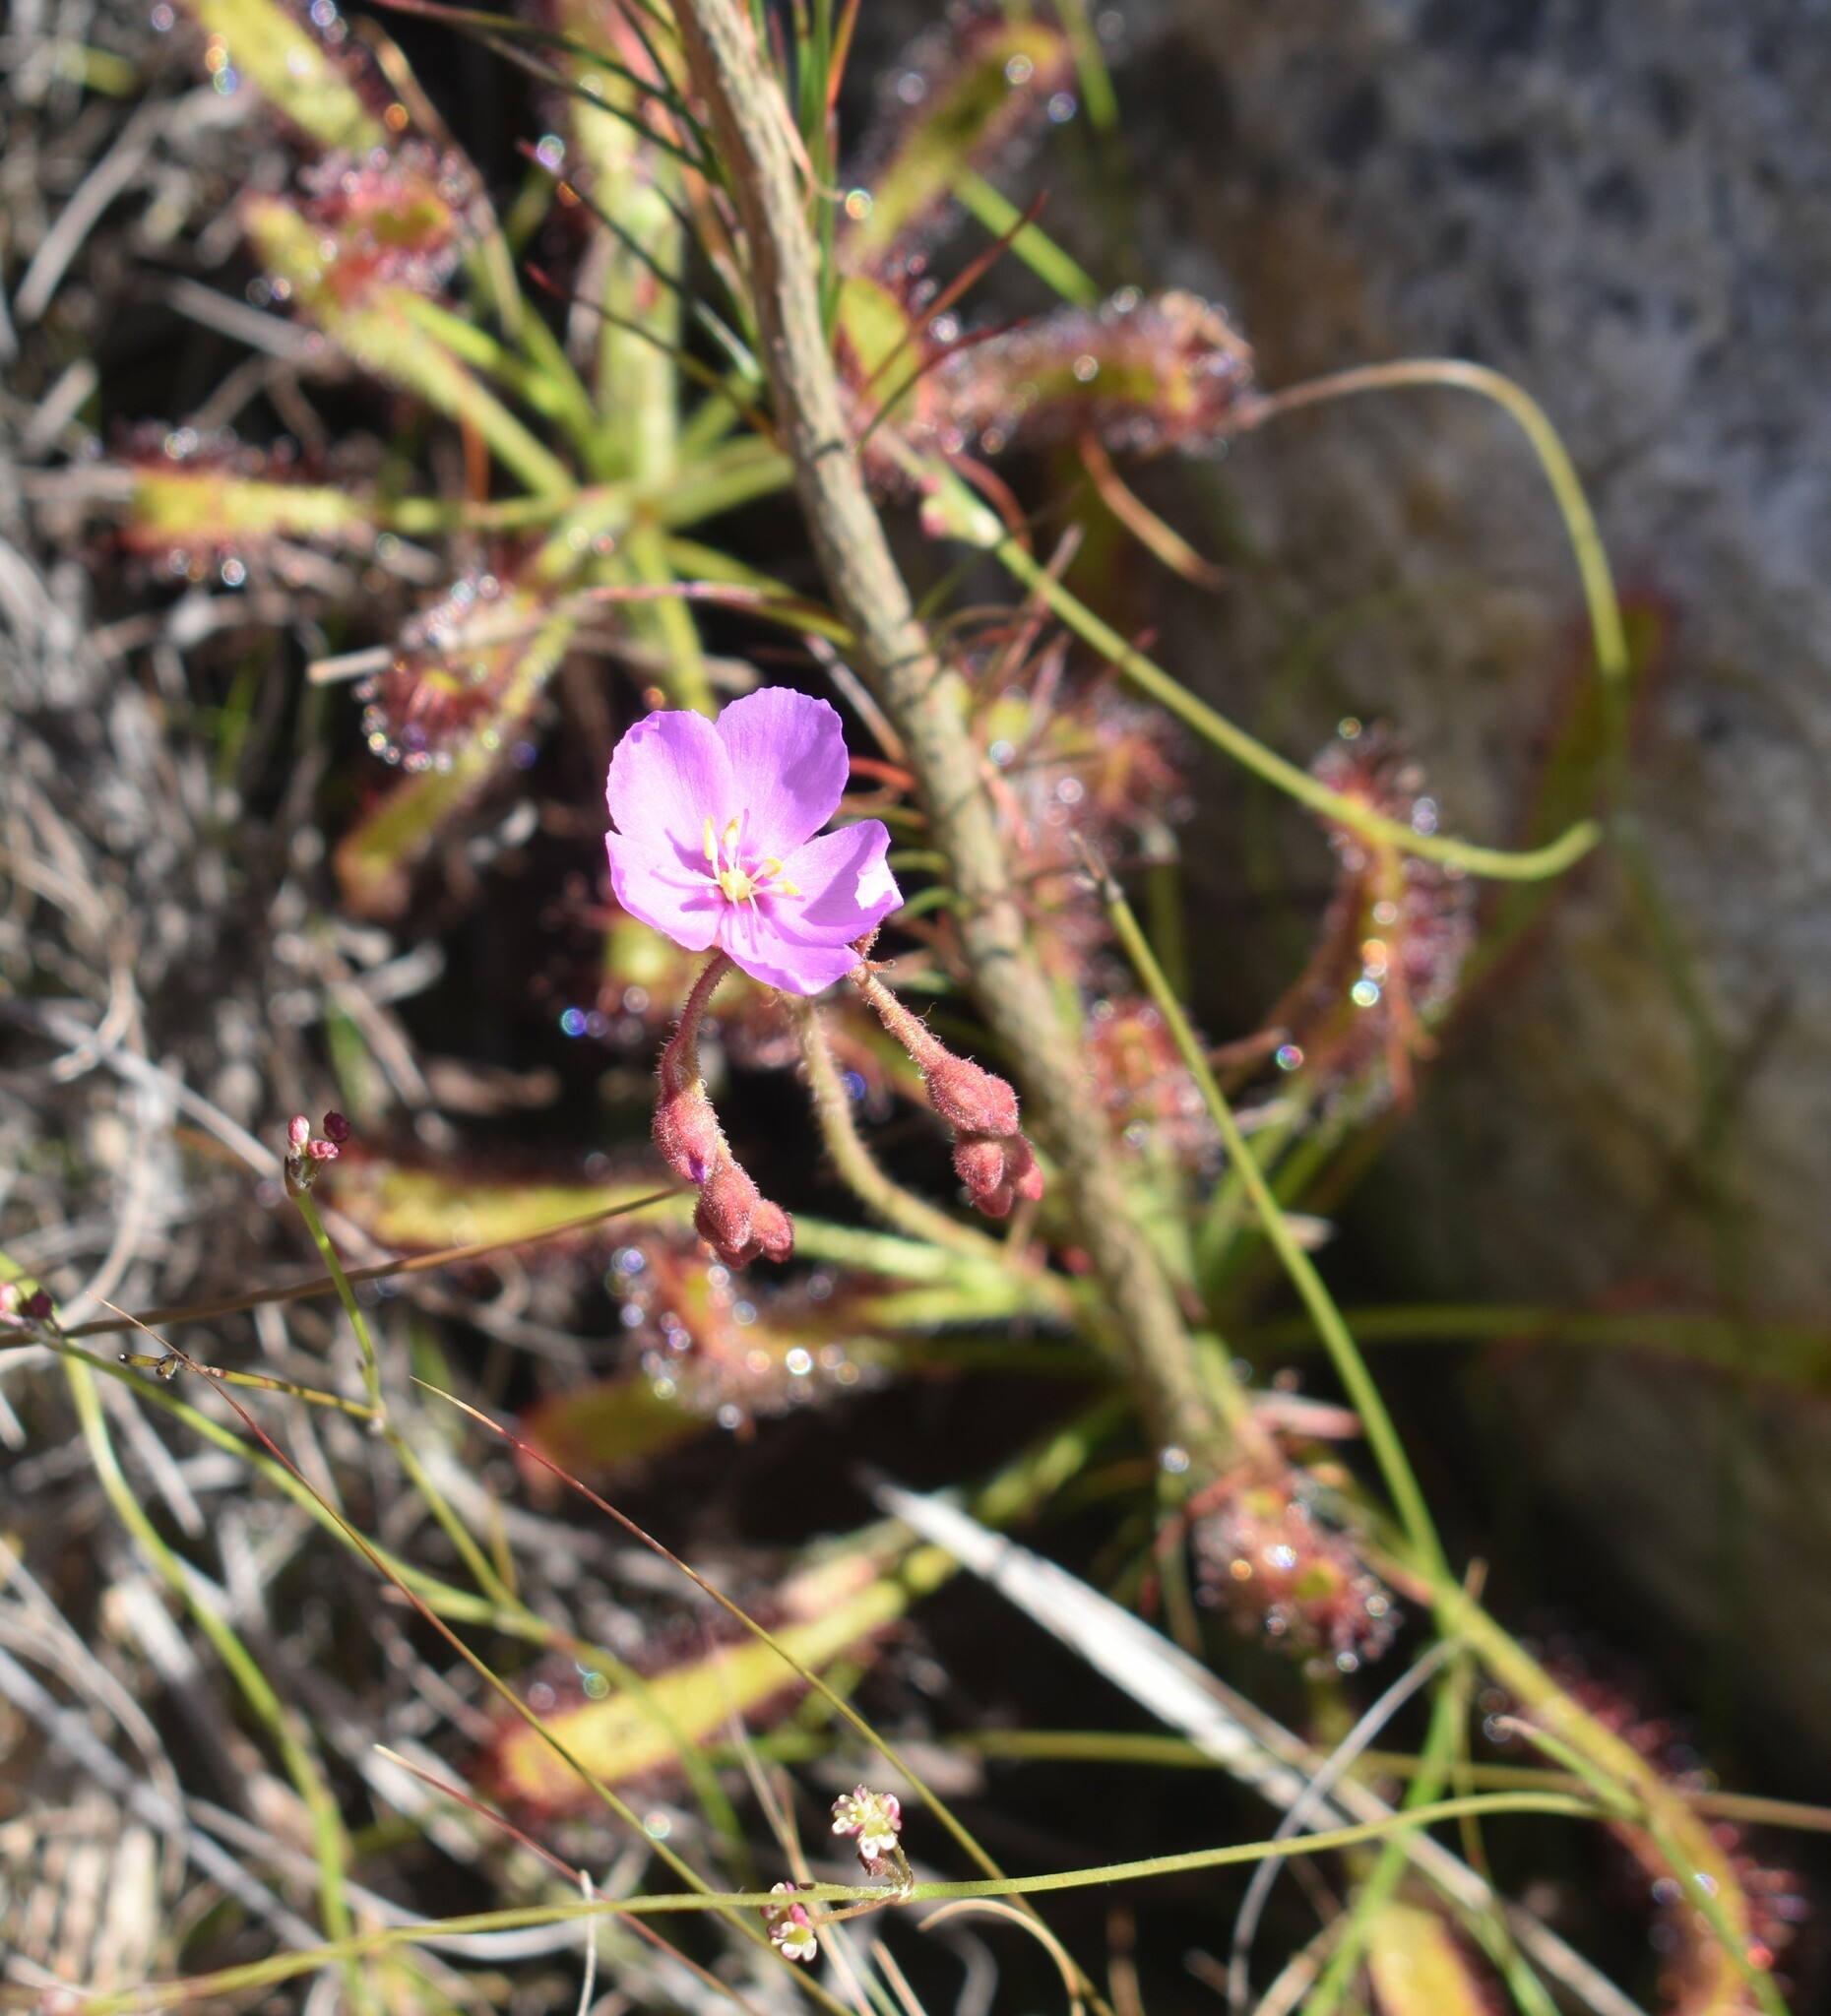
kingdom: Plantae
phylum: Tracheophyta
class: Magnoliopsida
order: Caryophyllales
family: Droseraceae
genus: Drosera
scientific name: Drosera ramentacea
